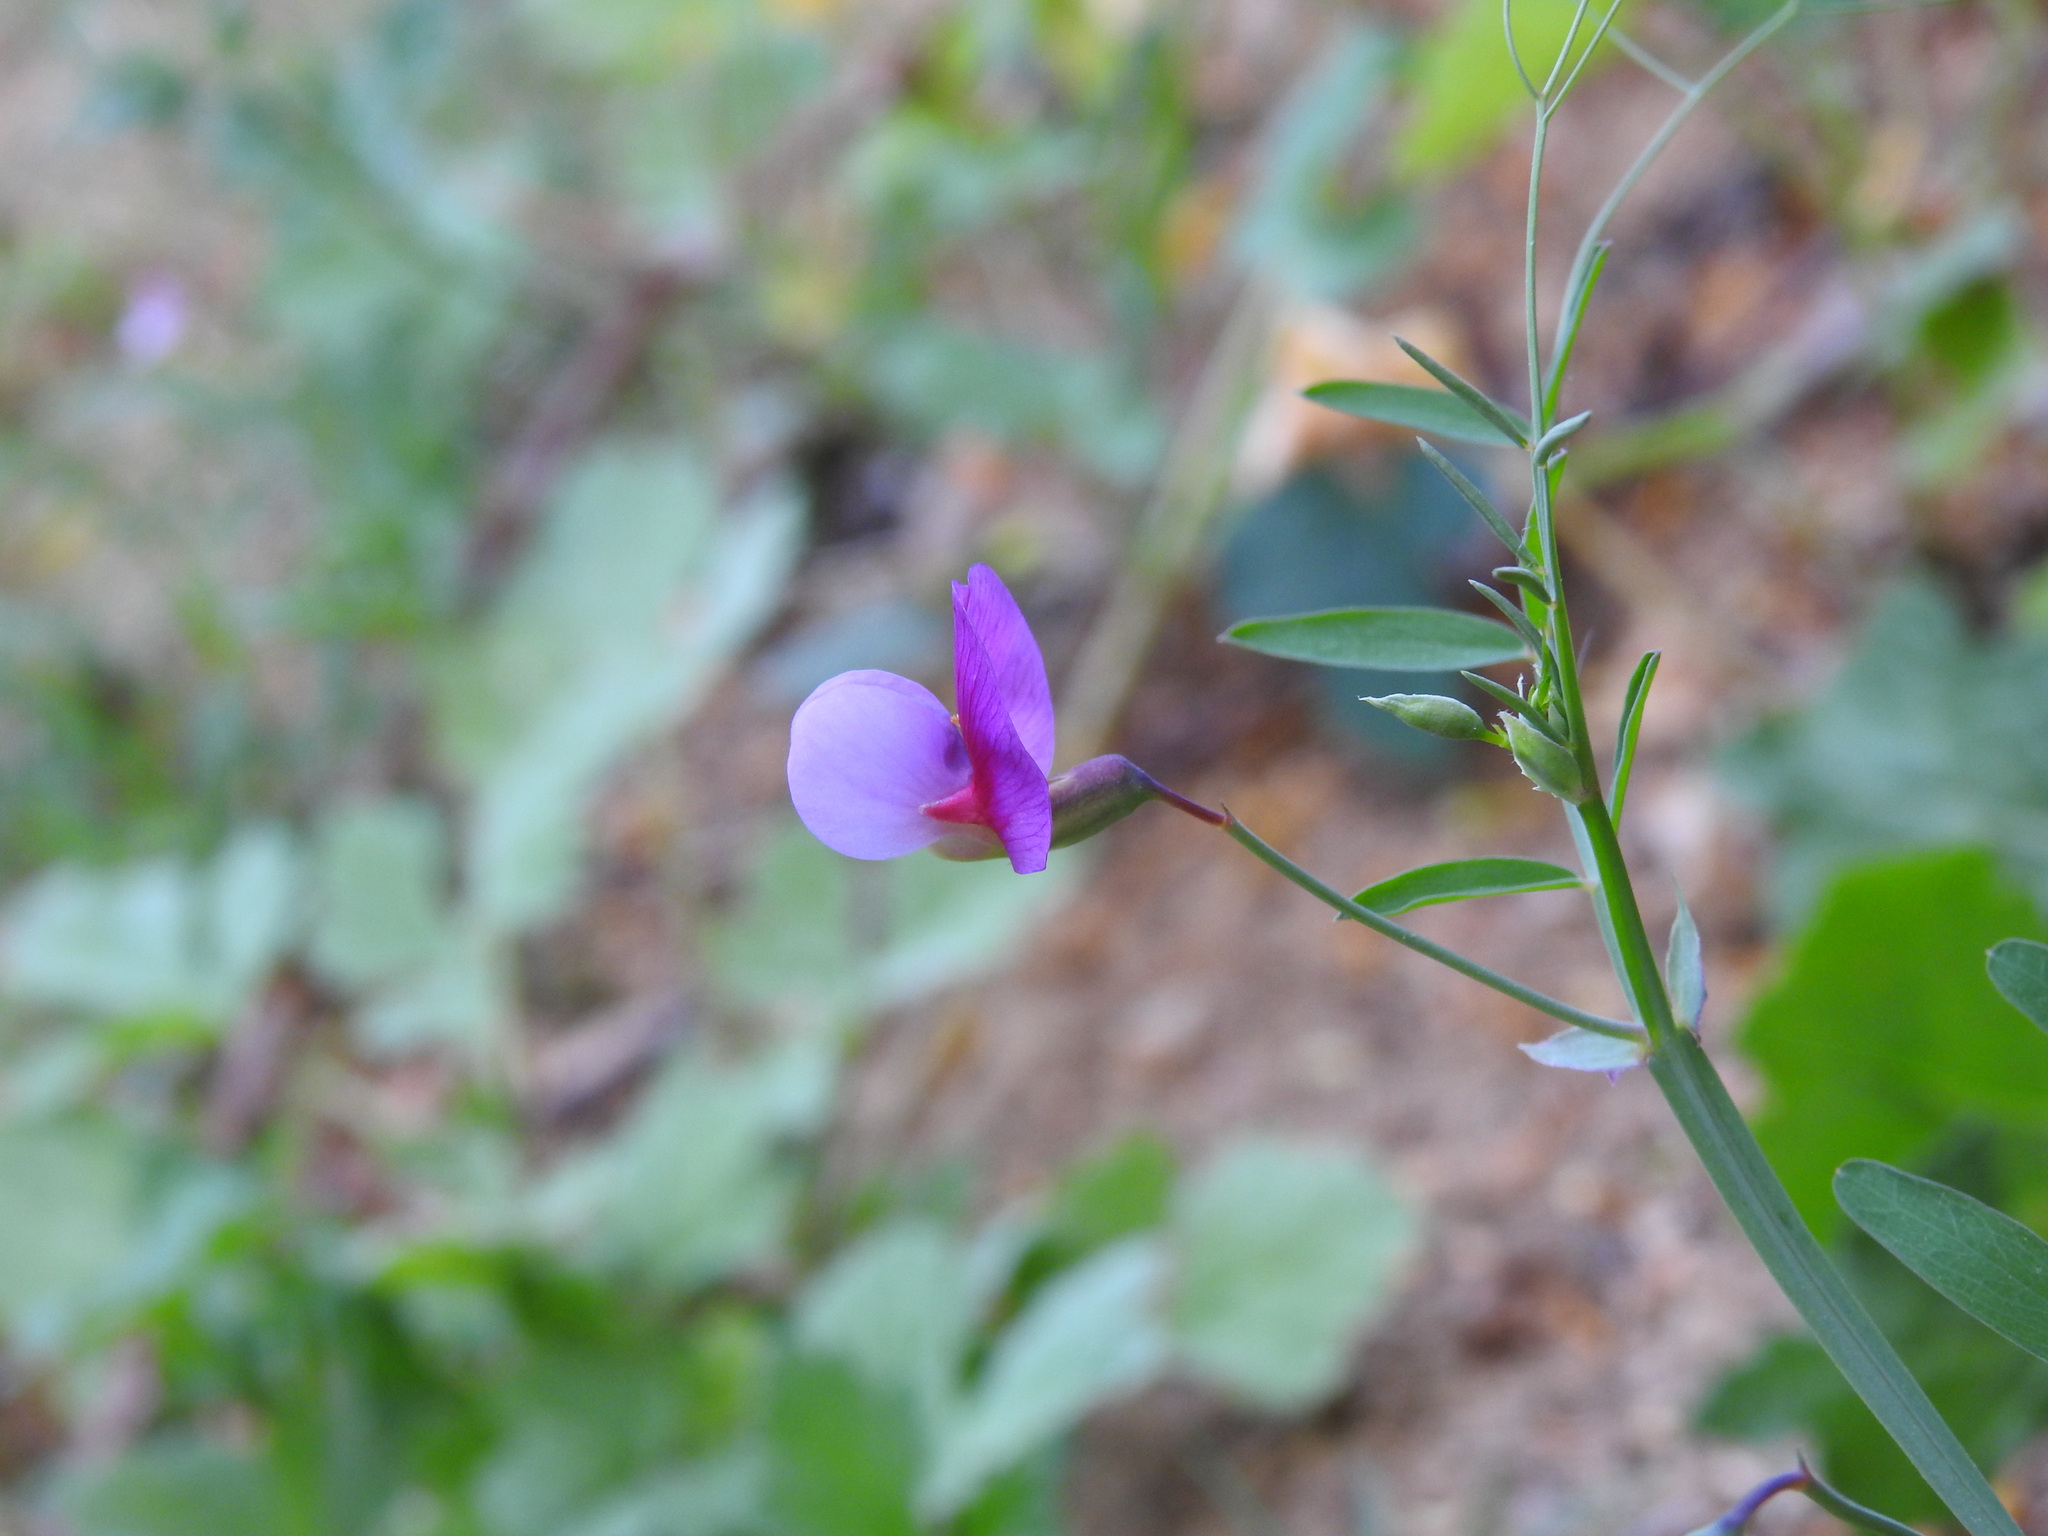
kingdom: Plantae
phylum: Tracheophyta
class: Magnoliopsida
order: Fabales
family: Fabaceae
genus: Lathyrus
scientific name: Lathyrus clymenum
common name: Spanish vetchling
